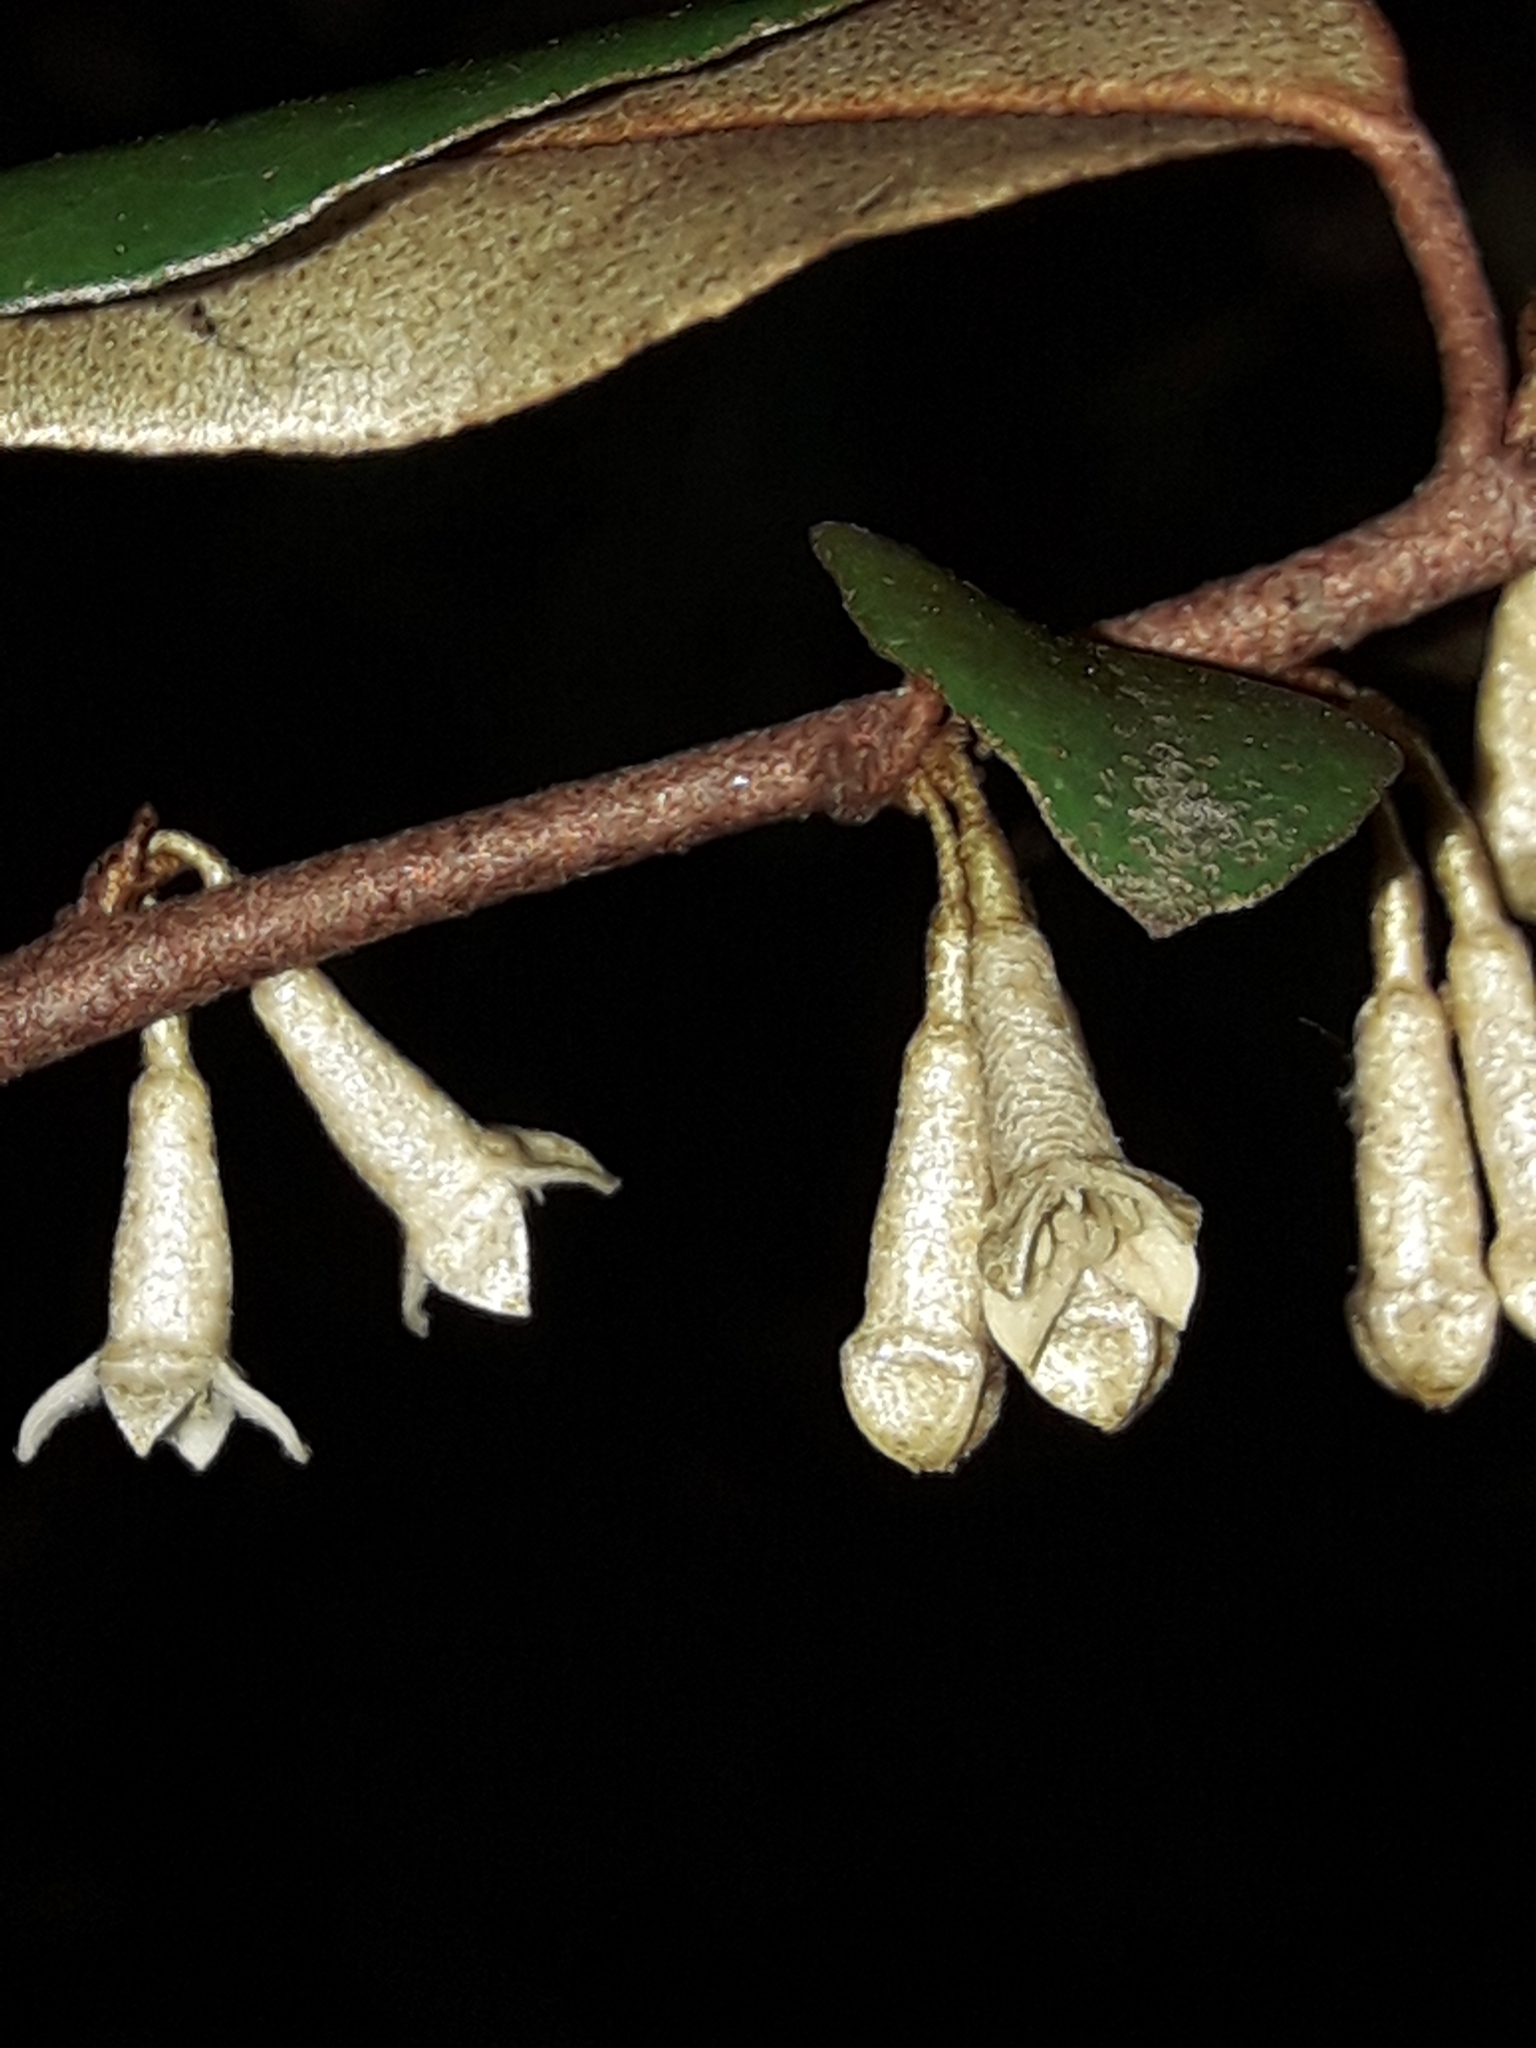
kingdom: Plantae
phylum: Tracheophyta
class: Magnoliopsida
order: Rosales
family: Elaeagnaceae
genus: Elaeagnus
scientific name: Elaeagnus reflexa
